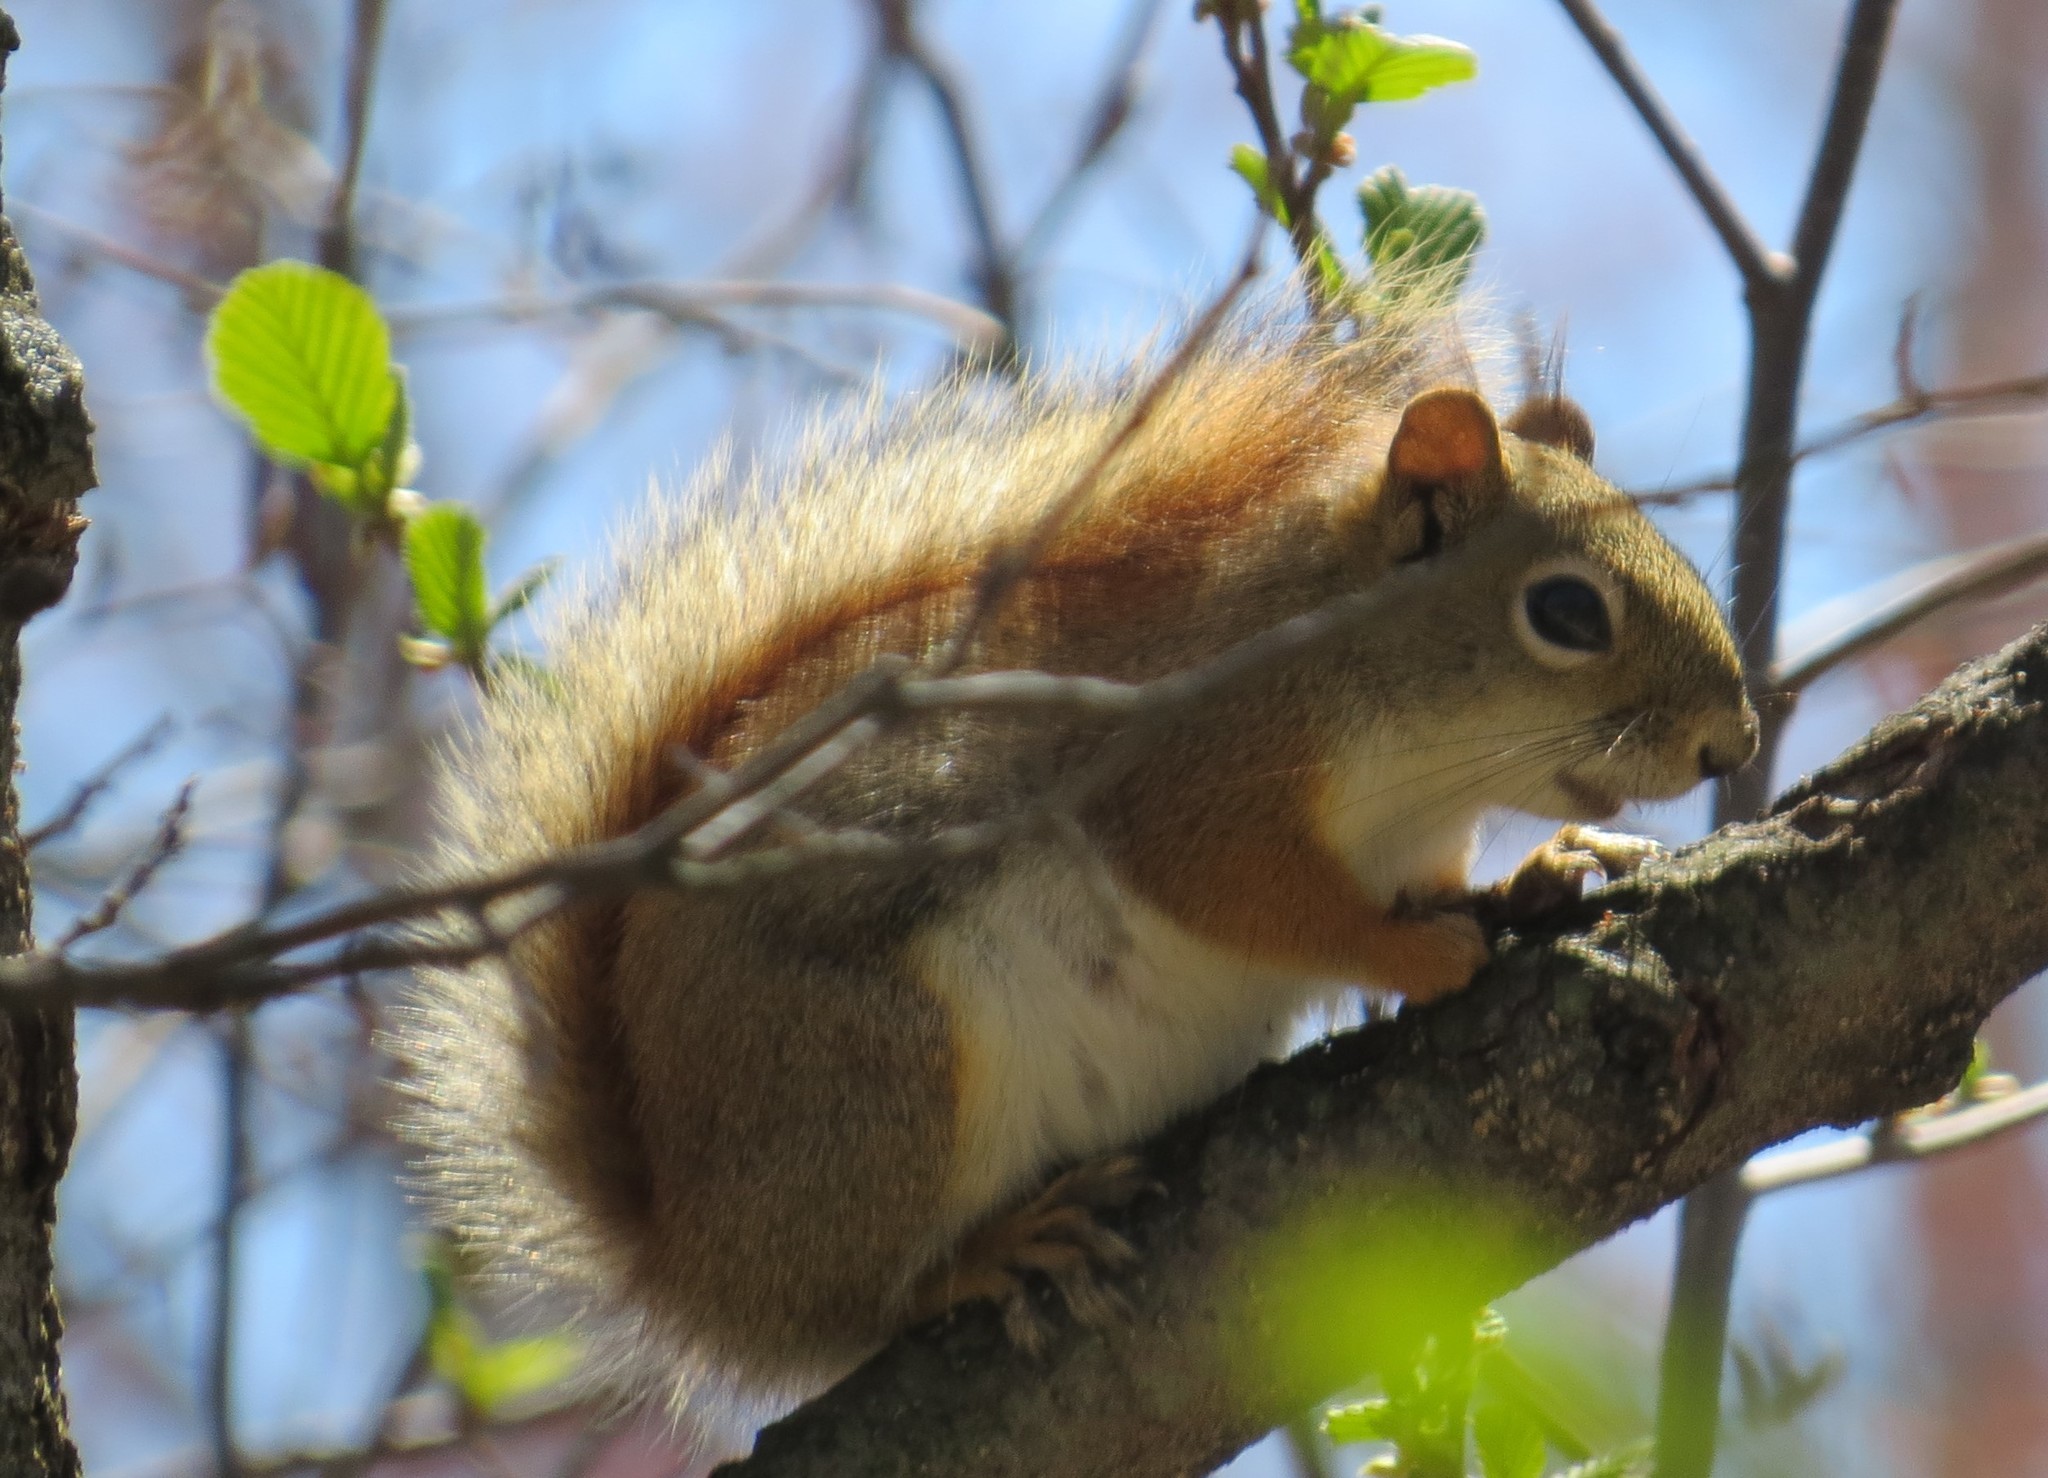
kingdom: Animalia
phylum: Chordata
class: Mammalia
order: Rodentia
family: Sciuridae
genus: Tamiasciurus
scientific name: Tamiasciurus hudsonicus
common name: Red squirrel
